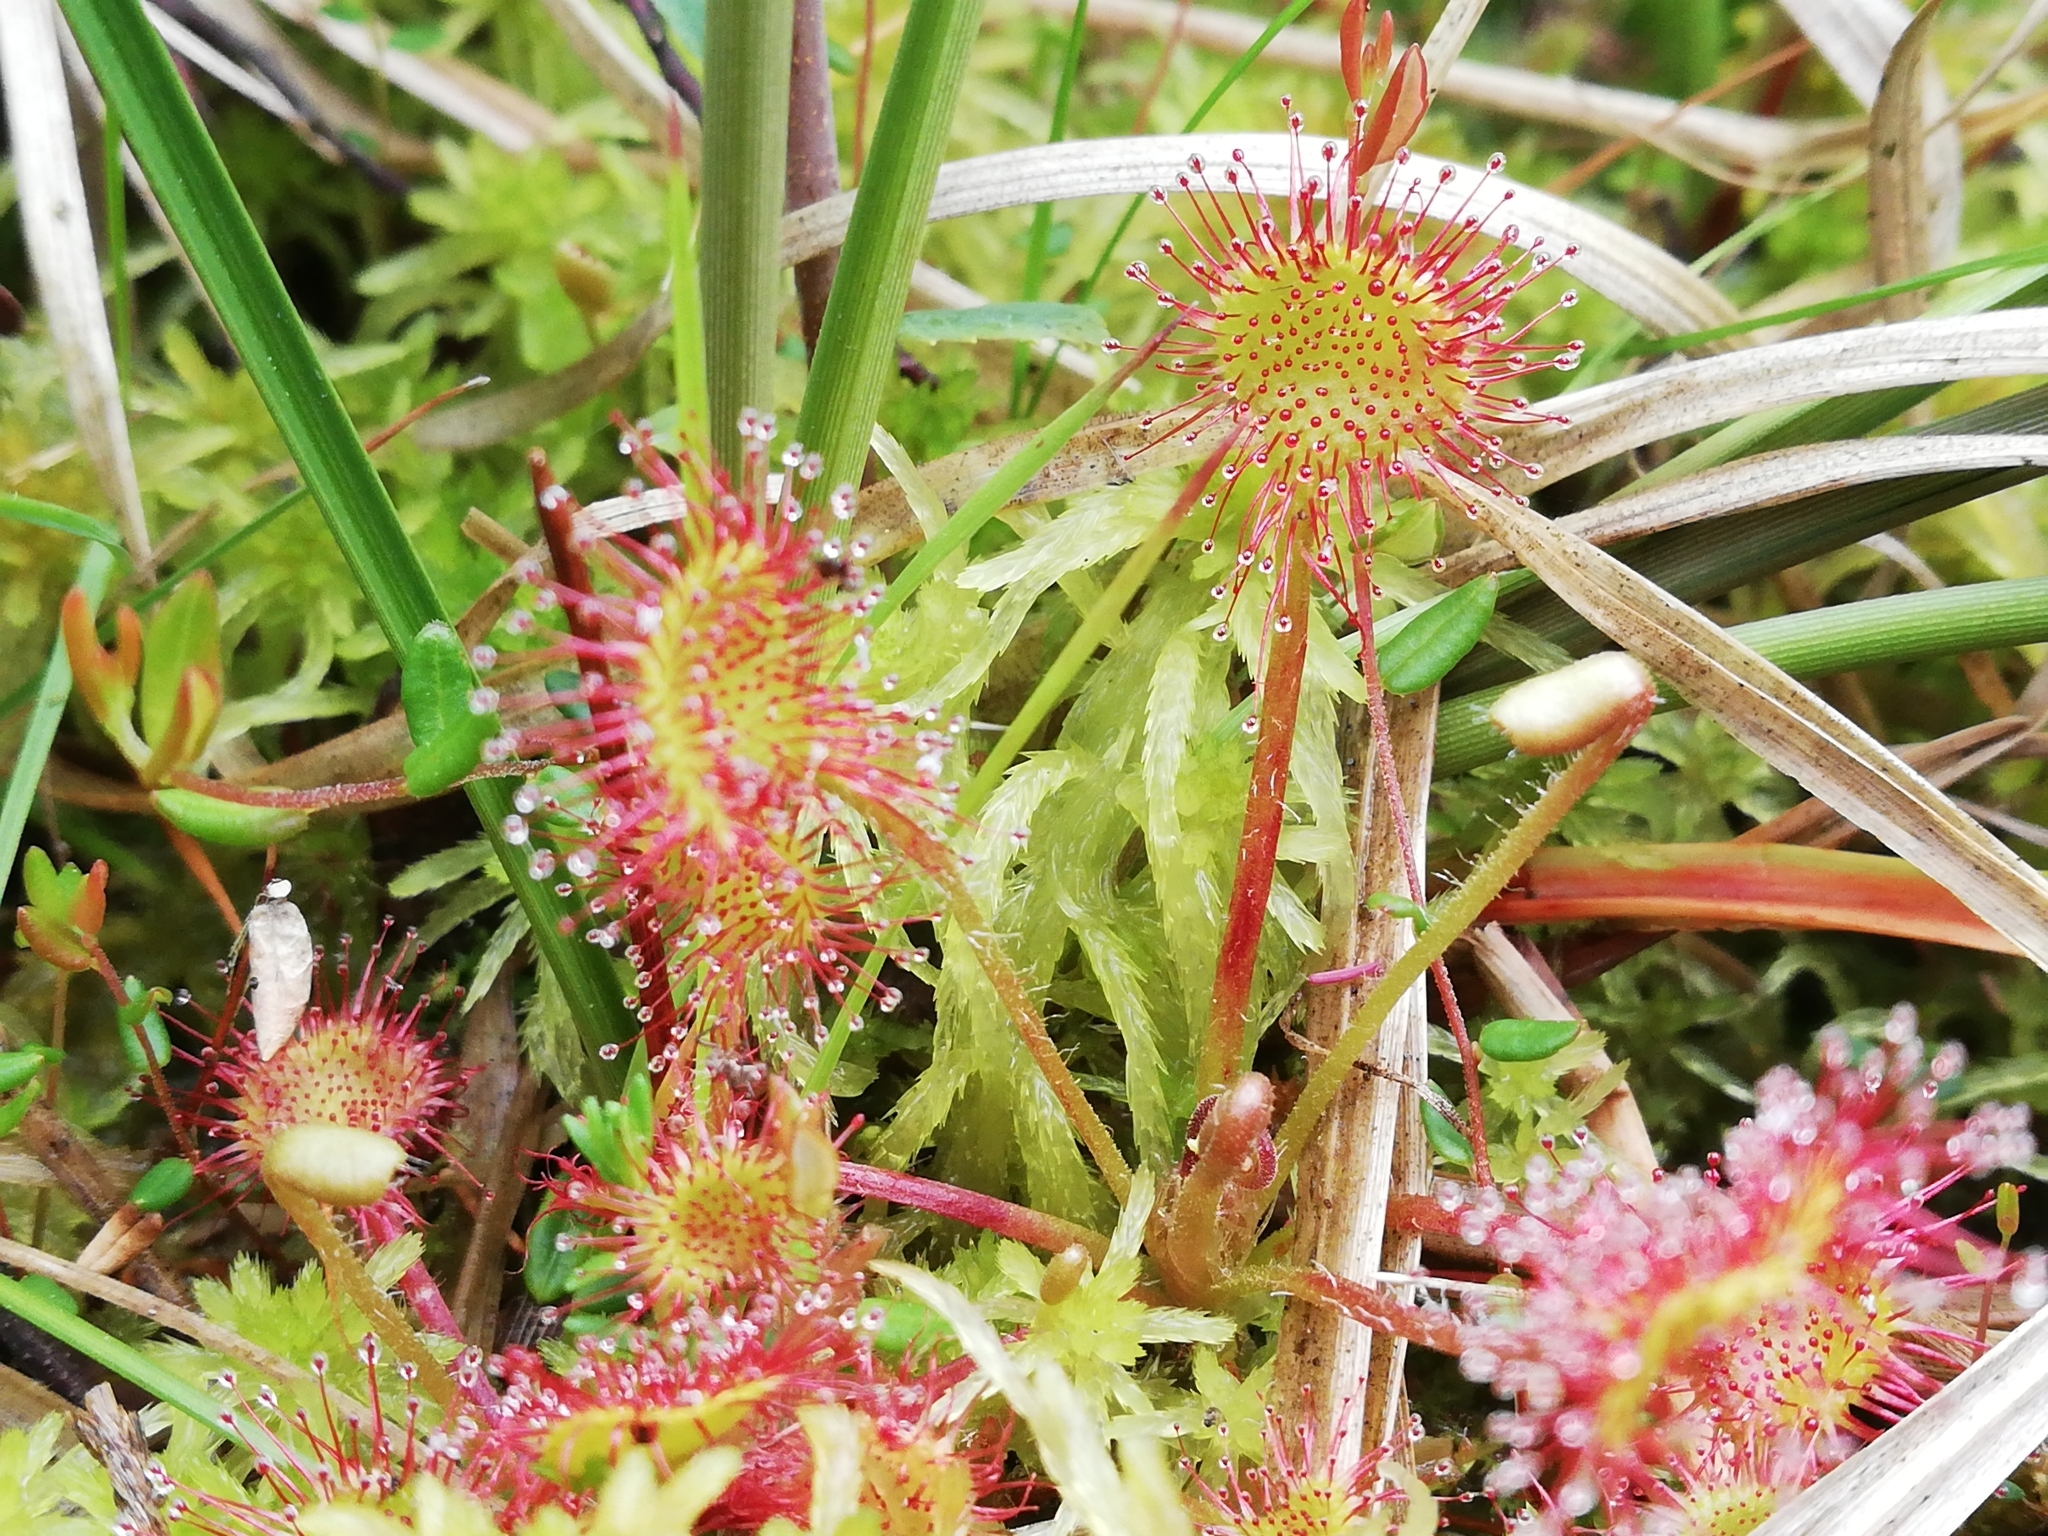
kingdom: Plantae
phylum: Tracheophyta
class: Magnoliopsida
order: Caryophyllales
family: Droseraceae
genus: Drosera
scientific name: Drosera rotundifolia
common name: Round-leaved sundew
